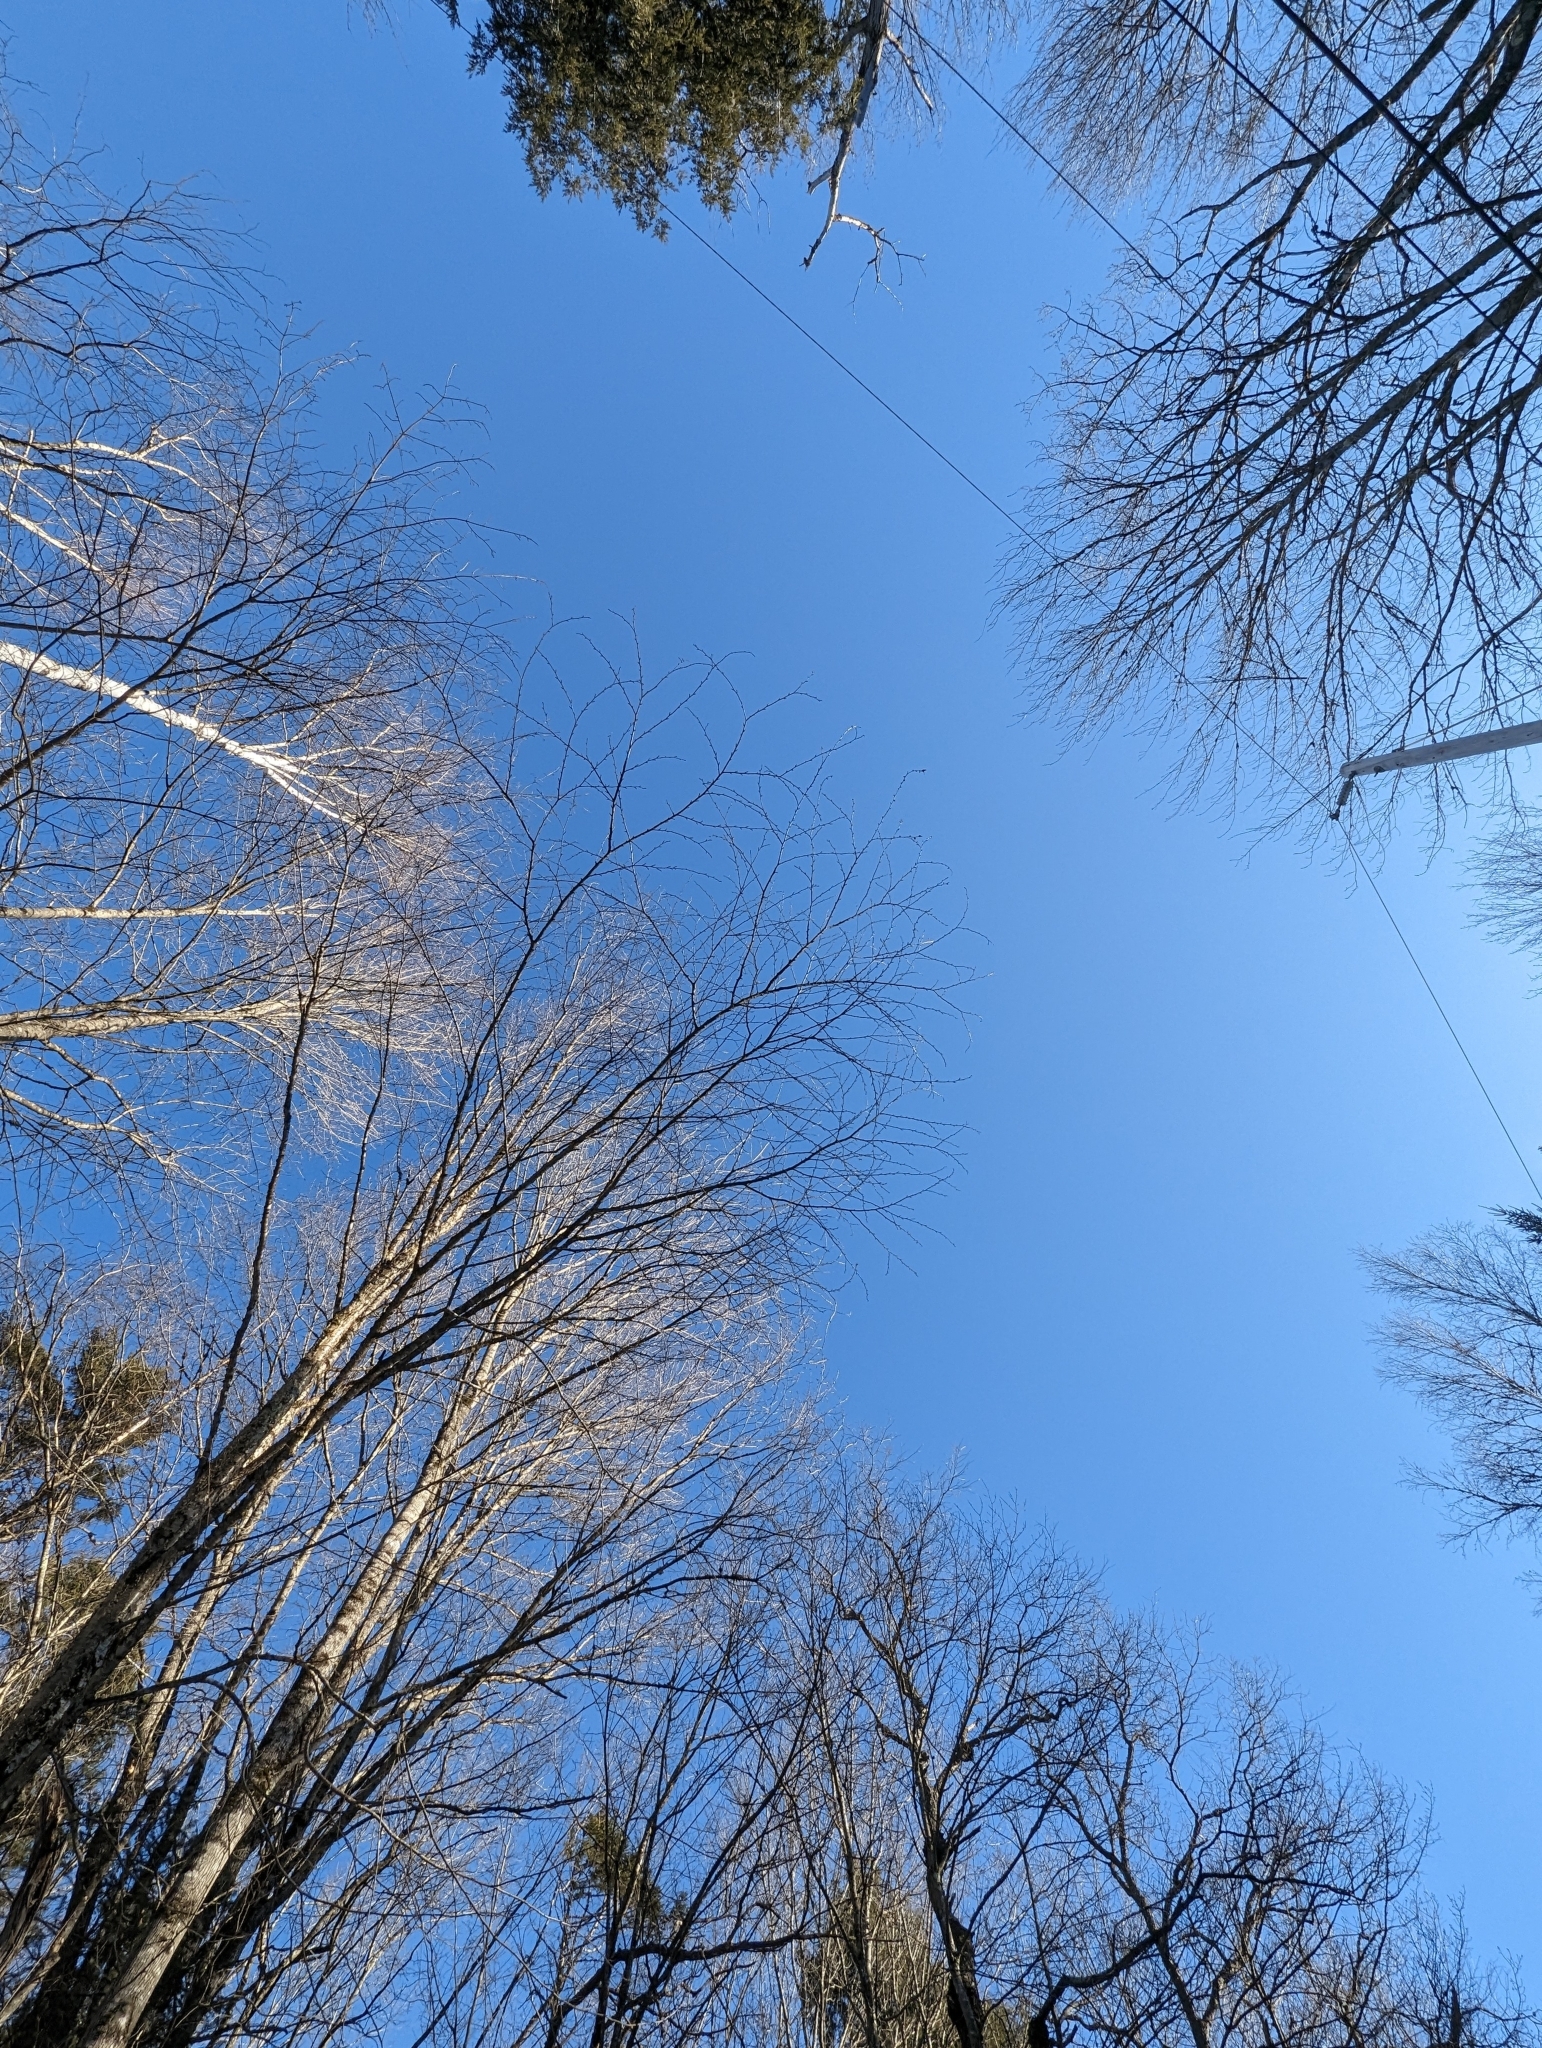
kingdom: Plantae
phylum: Tracheophyta
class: Magnoliopsida
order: Fagales
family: Betulaceae
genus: Betula
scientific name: Betula alleghaniensis
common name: Yellow birch
